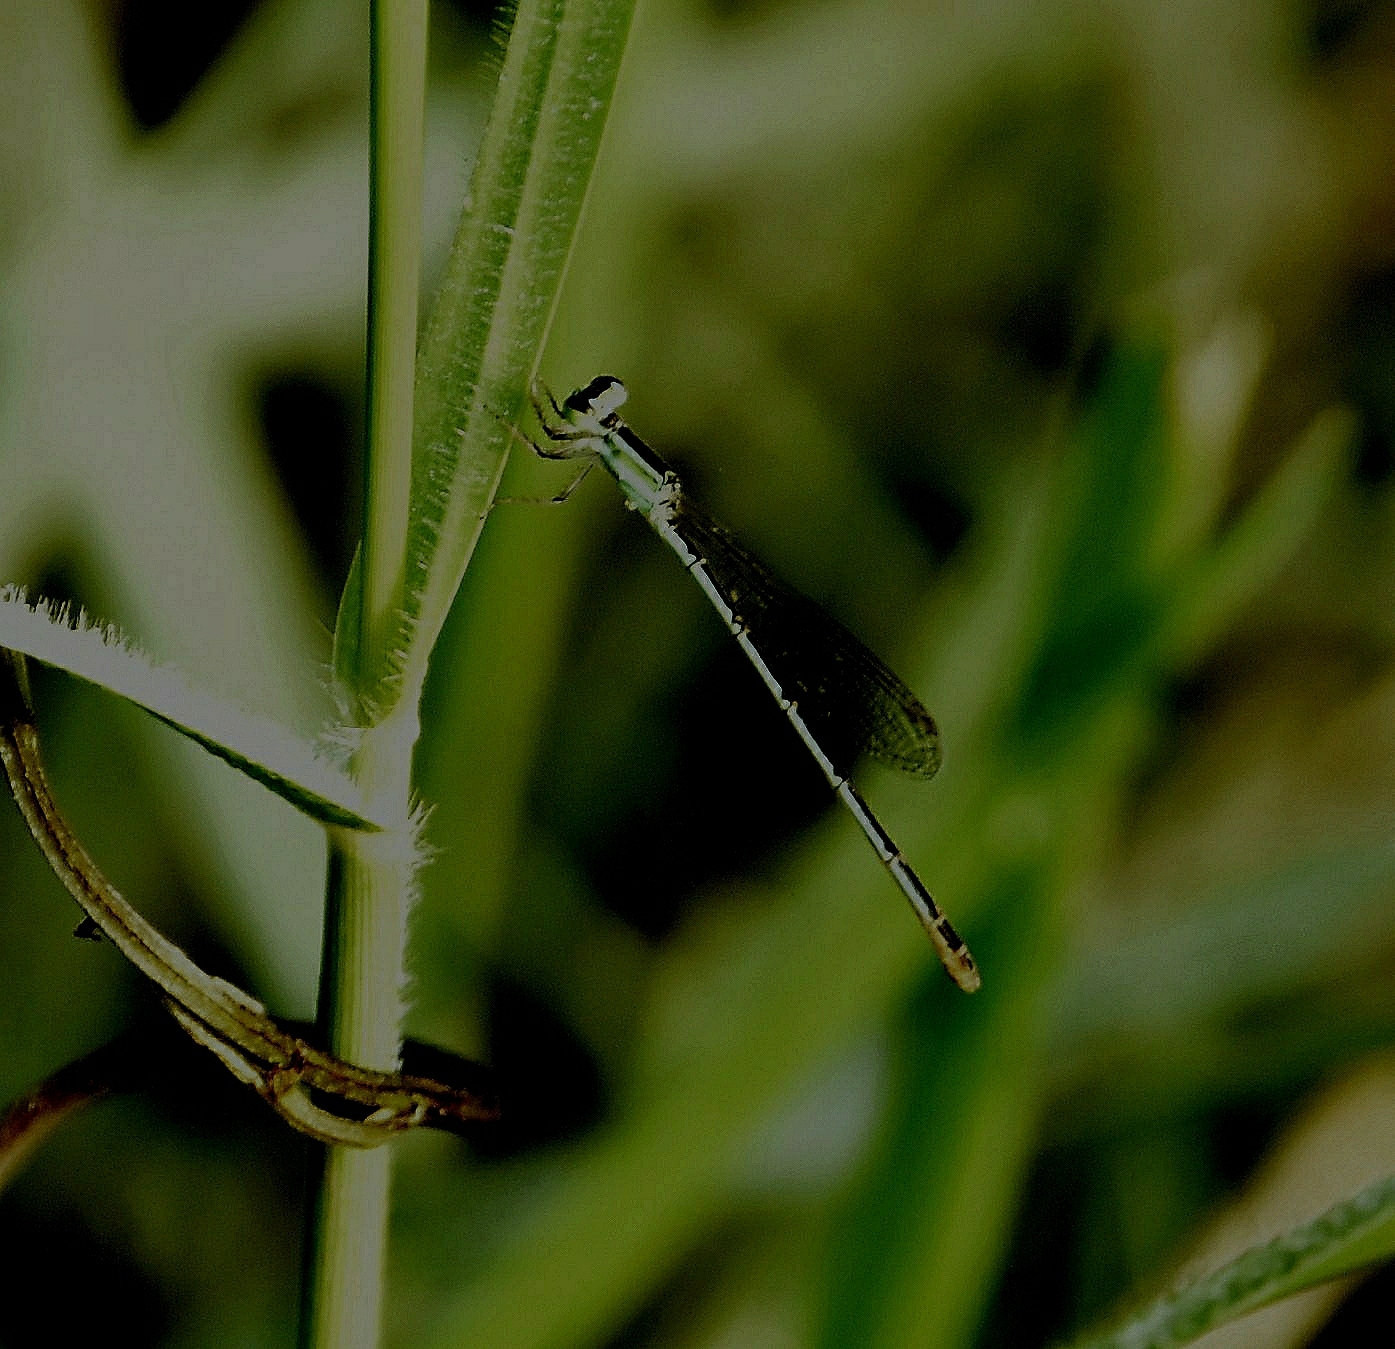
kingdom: Animalia
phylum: Arthropoda
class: Insecta
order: Odonata
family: Coenagrionidae
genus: Agriocnemis
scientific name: Agriocnemis pygmaea
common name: Pygmy wisp
